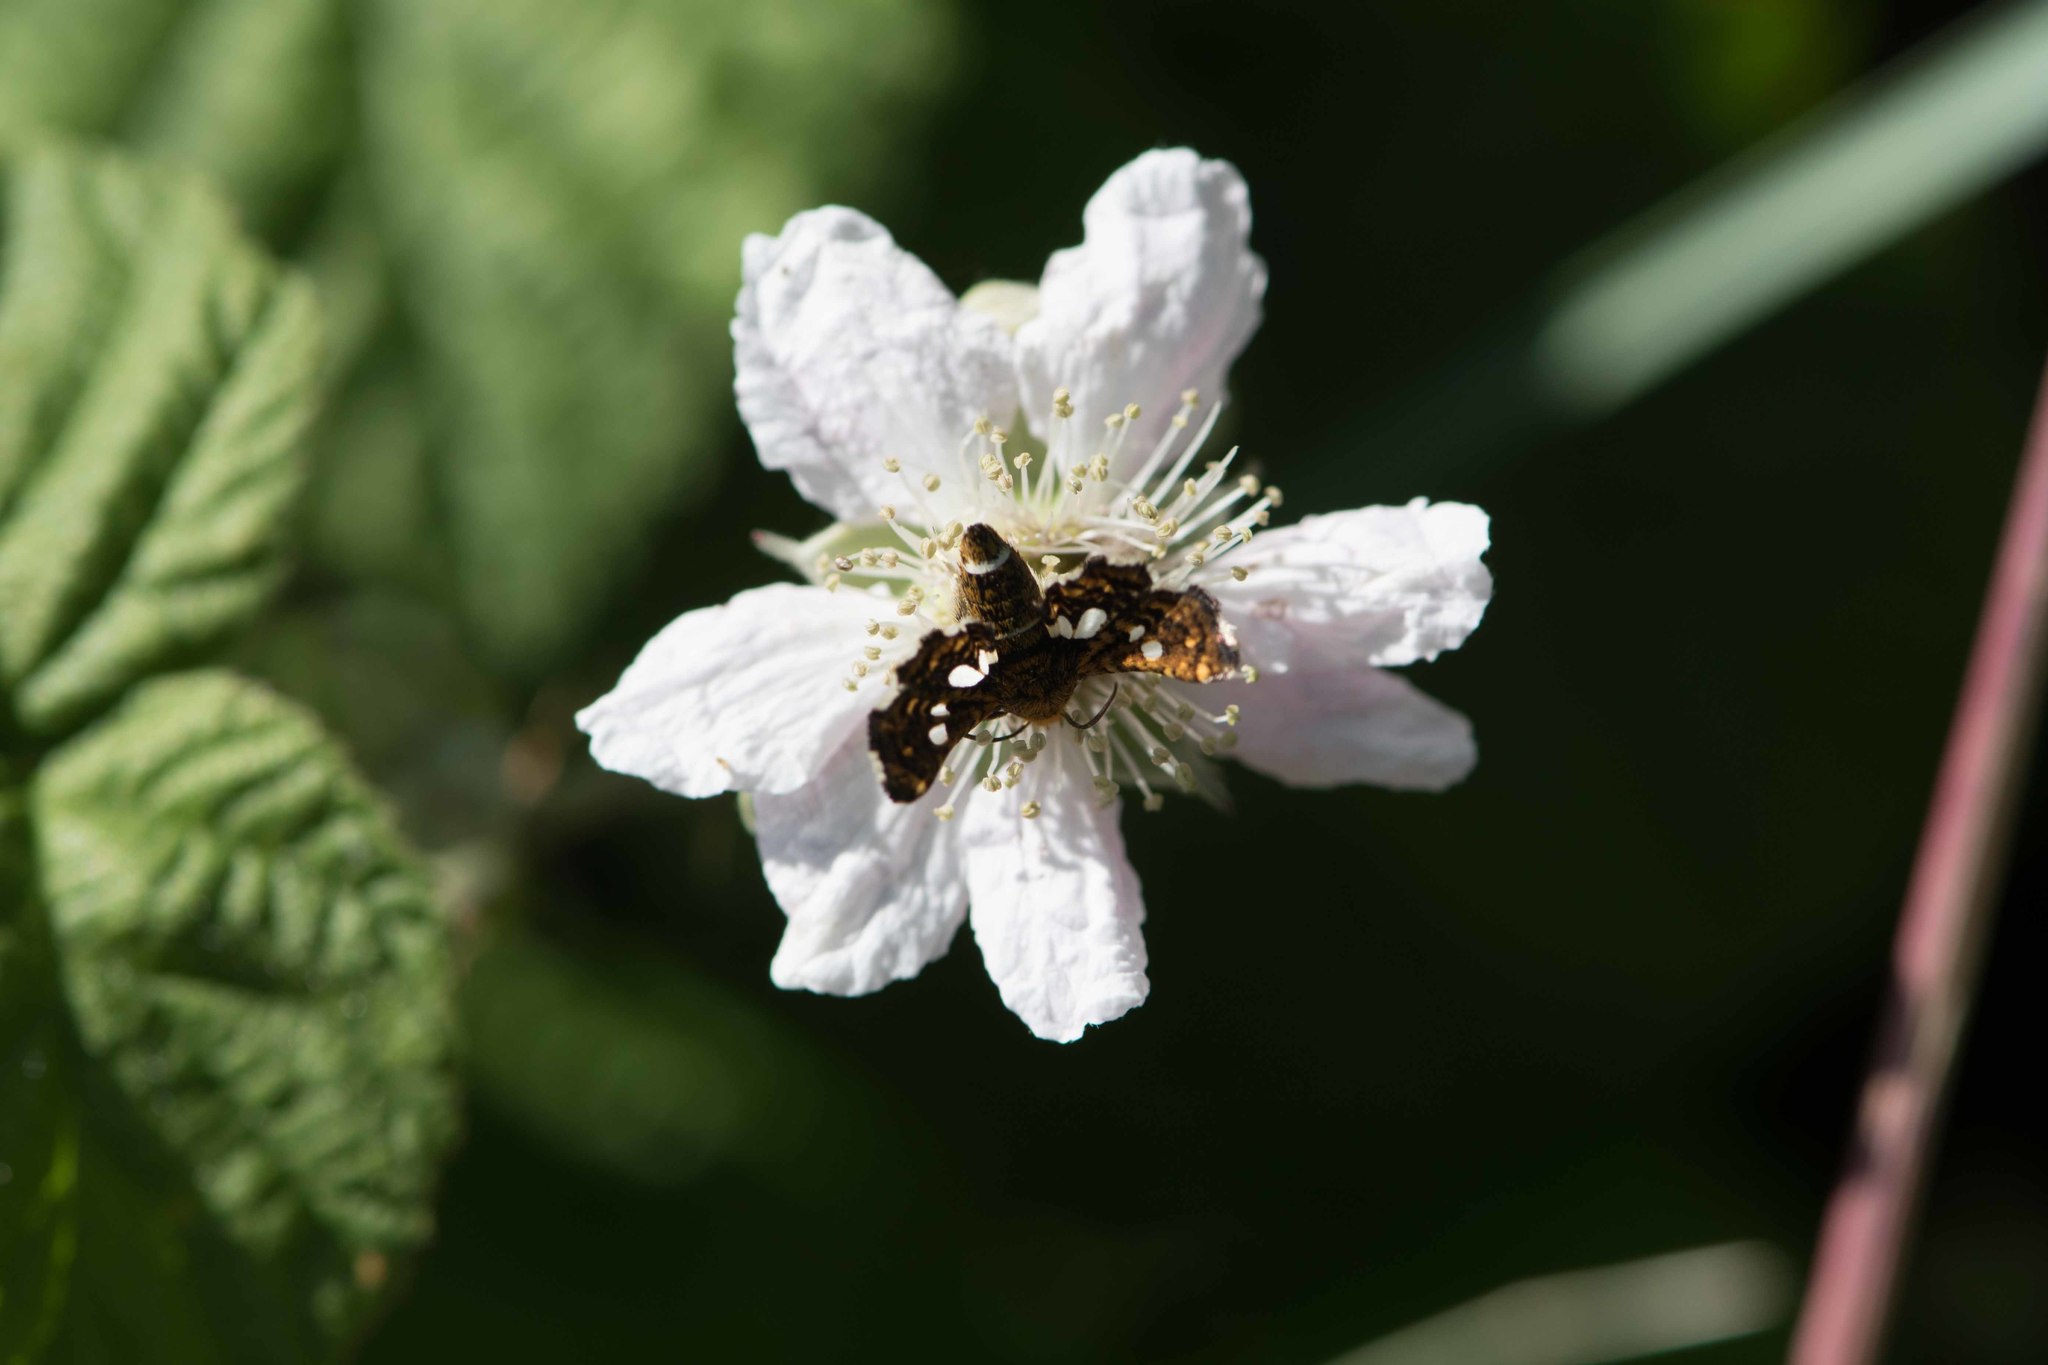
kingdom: Animalia
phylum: Arthropoda
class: Insecta
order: Lepidoptera
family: Thyrididae
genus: Thyris
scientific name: Thyris fenestrella
